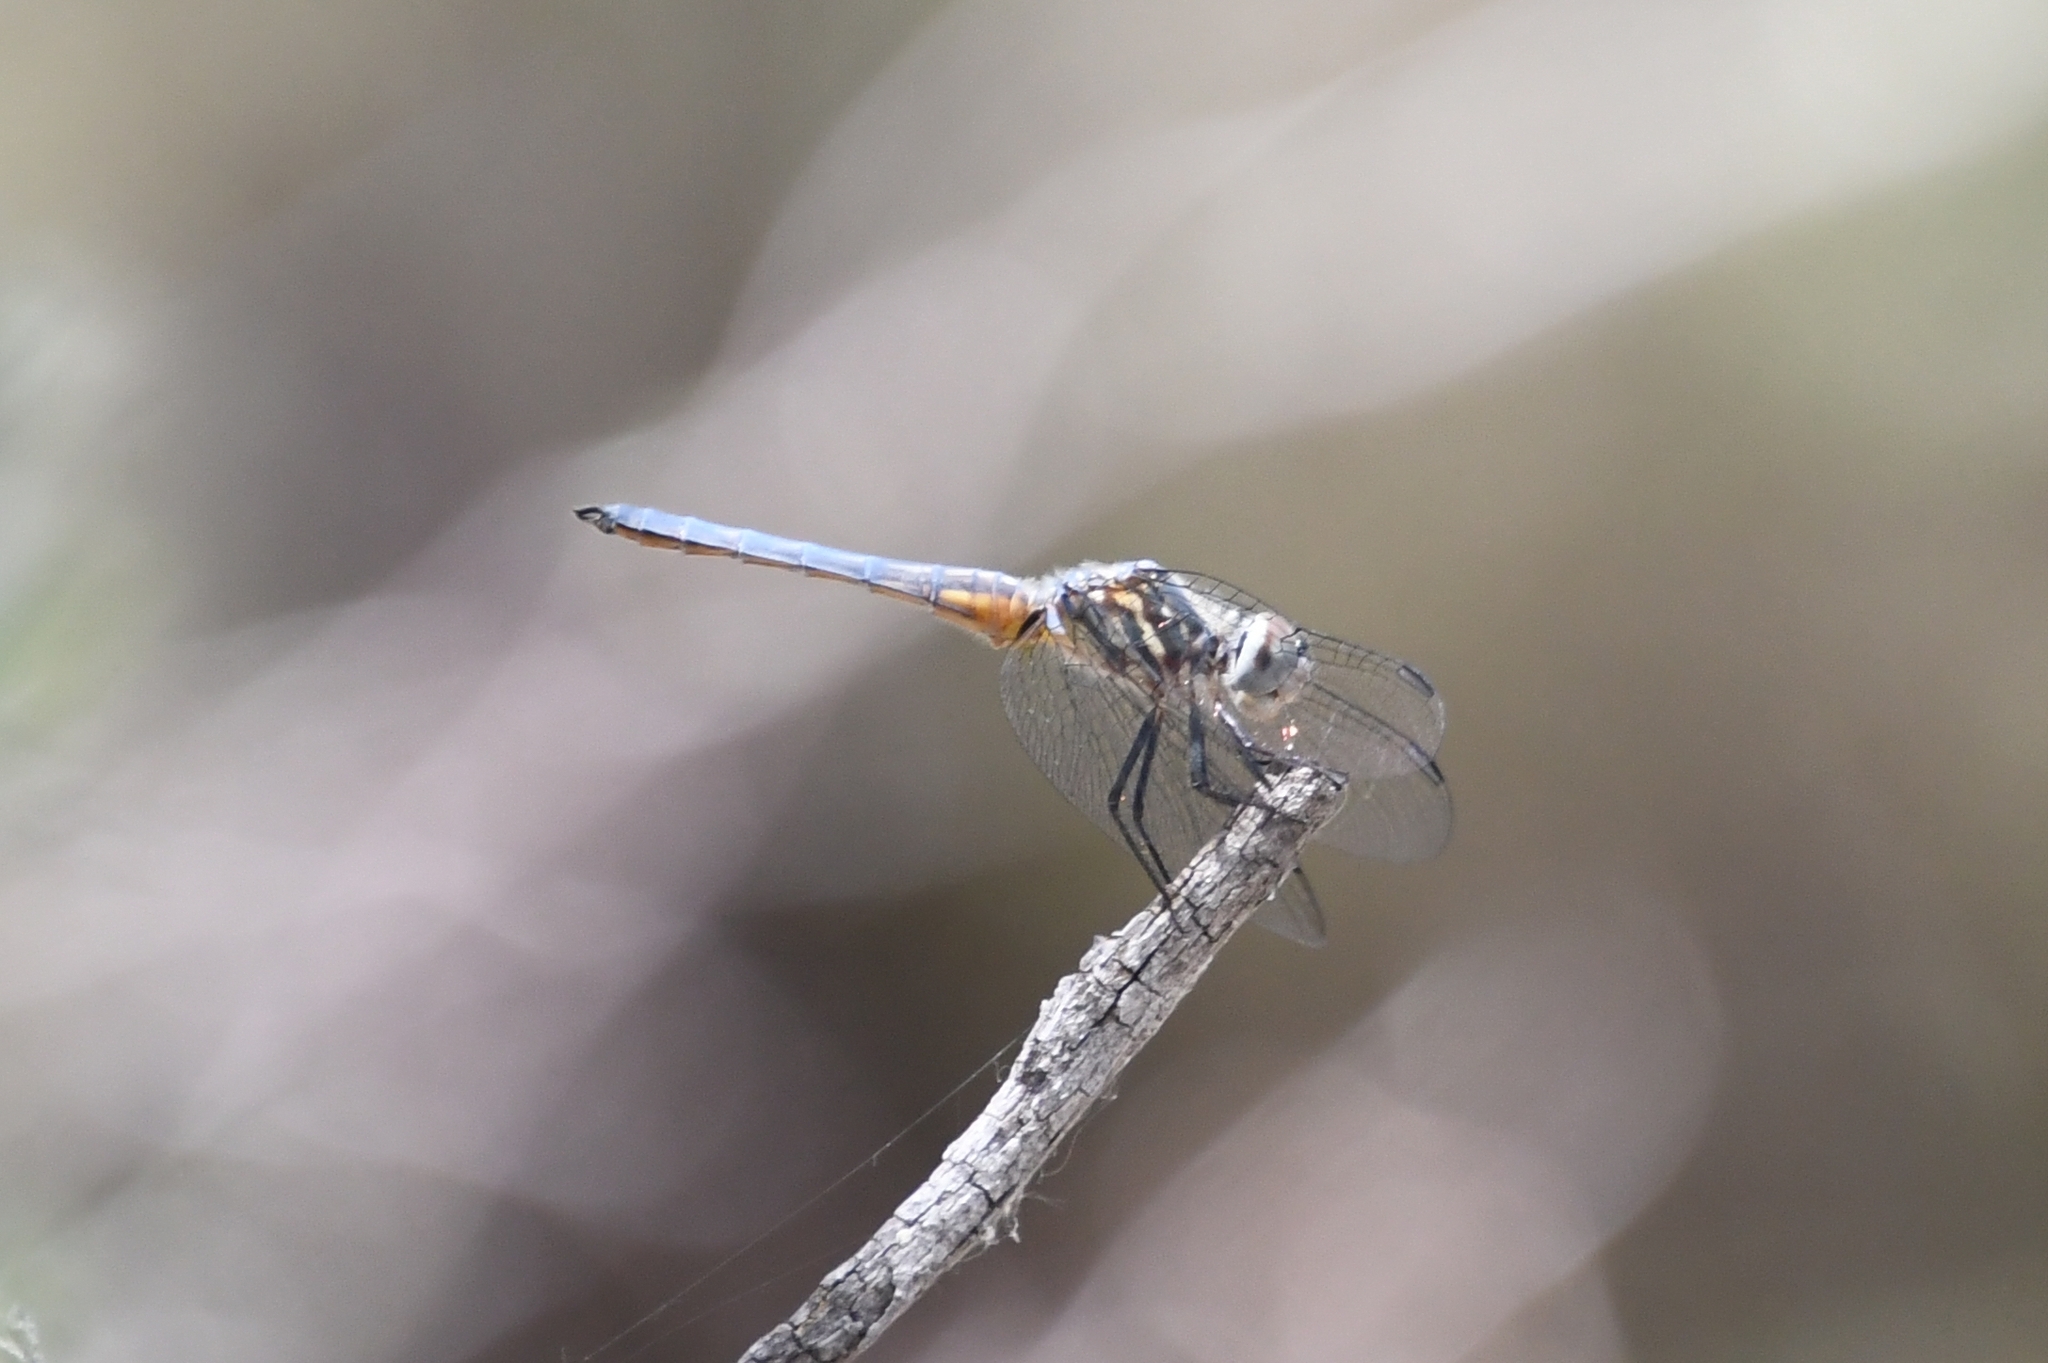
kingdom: Animalia
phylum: Arthropoda
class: Insecta
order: Odonata
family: Libellulidae
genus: Pachydiplax
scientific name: Pachydiplax longipennis
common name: Blue dasher
